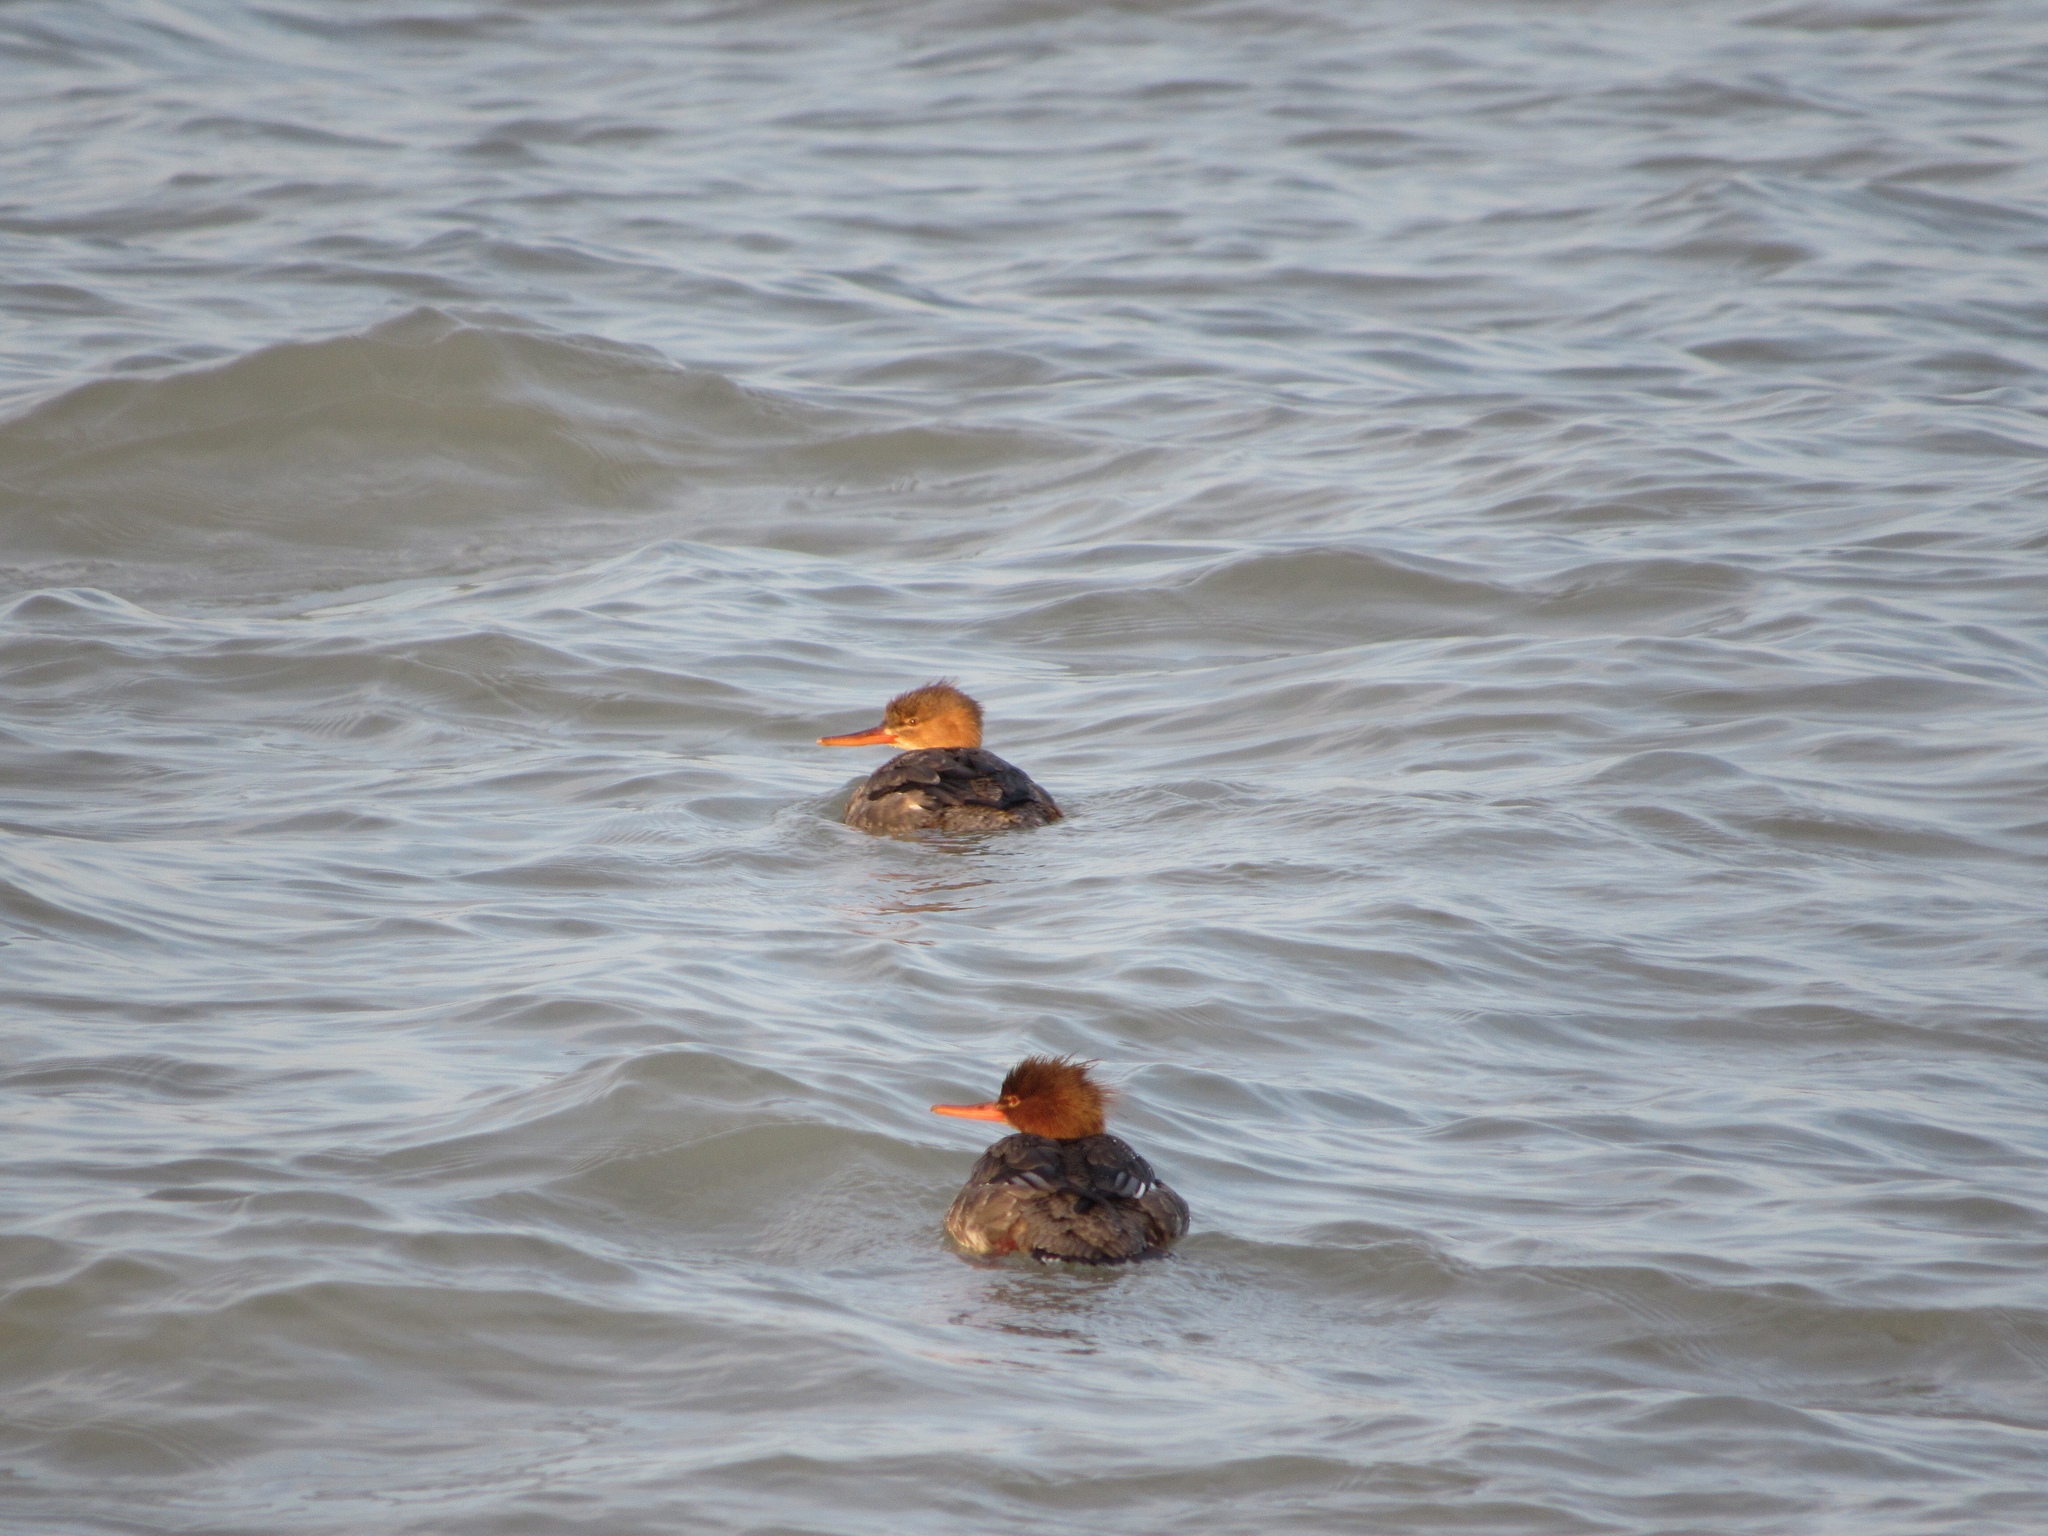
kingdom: Animalia
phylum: Chordata
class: Aves
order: Anseriformes
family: Anatidae
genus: Mergus
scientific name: Mergus serrator
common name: Red-breasted merganser
